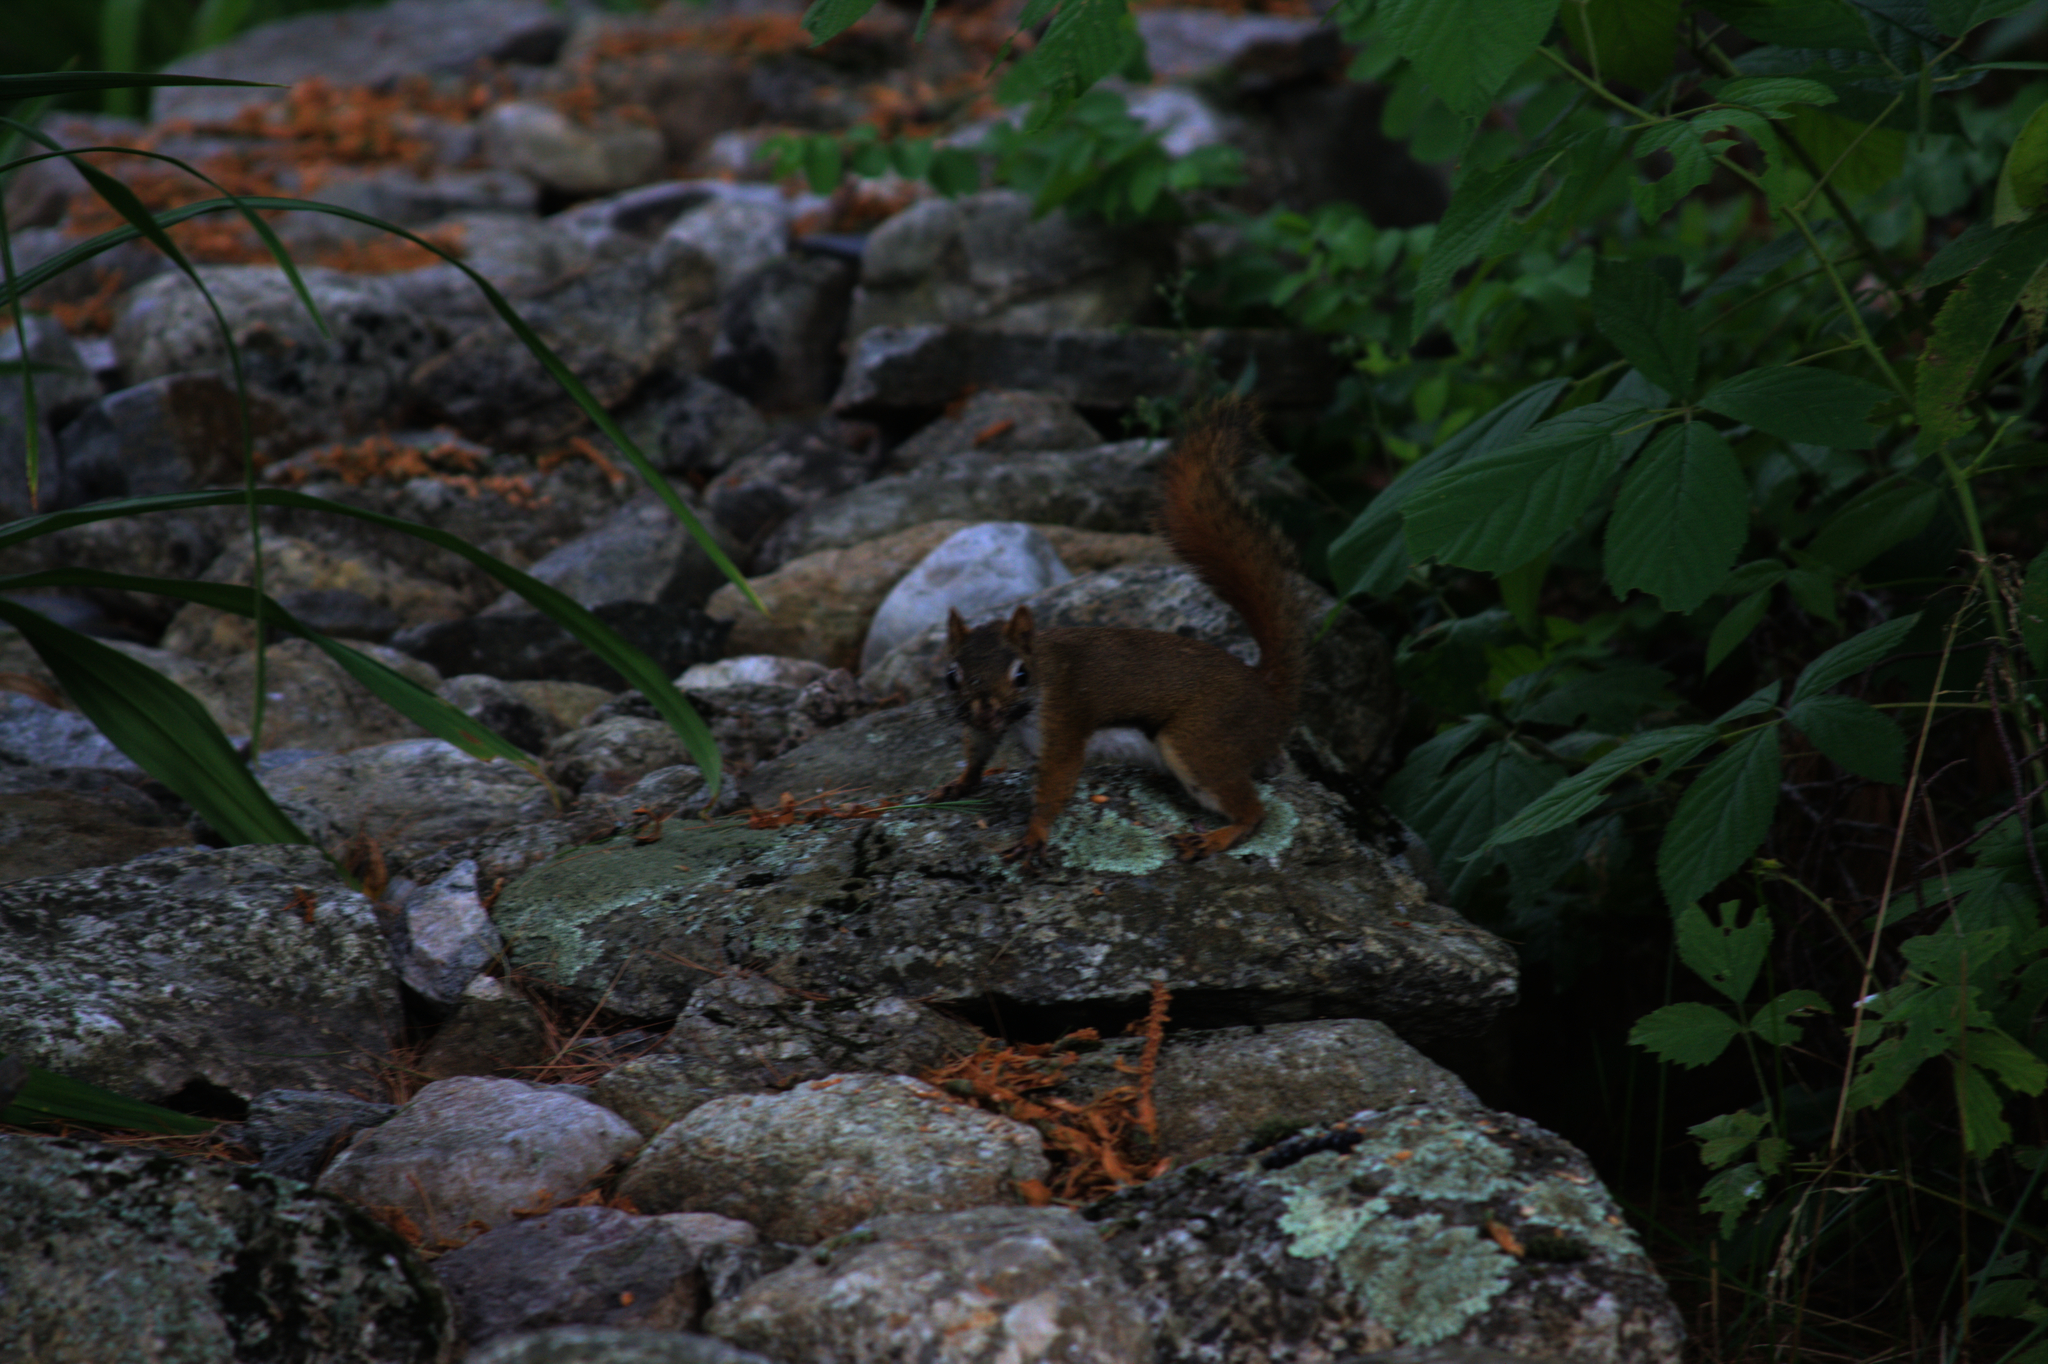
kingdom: Animalia
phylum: Chordata
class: Mammalia
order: Rodentia
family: Sciuridae
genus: Tamiasciurus
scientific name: Tamiasciurus hudsonicus
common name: Red squirrel
